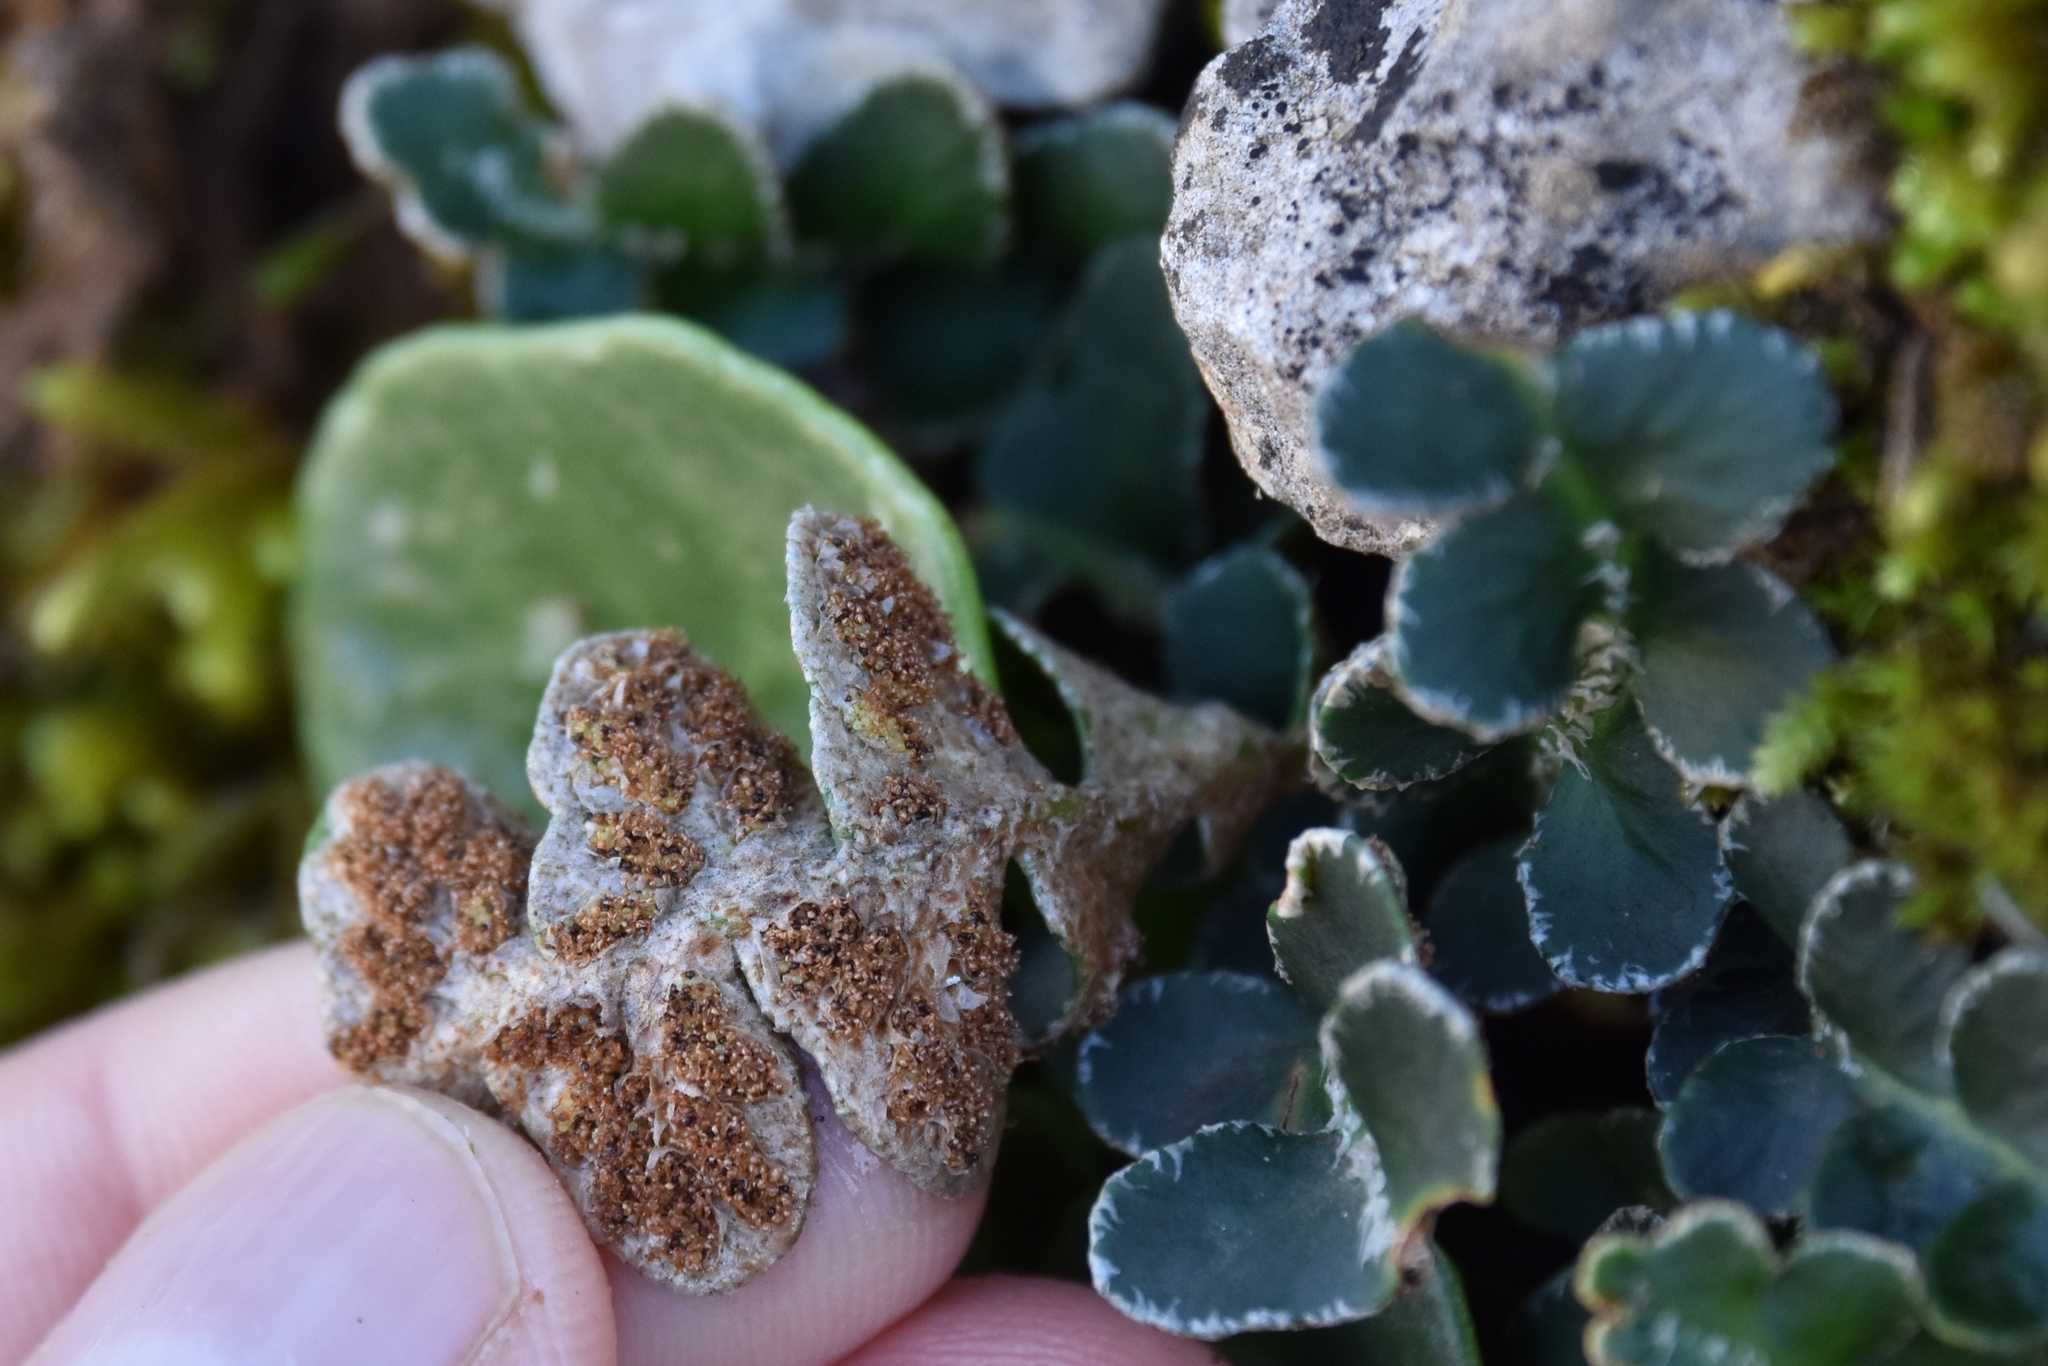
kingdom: Plantae
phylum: Tracheophyta
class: Polypodiopsida
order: Polypodiales
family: Aspleniaceae
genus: Asplenium
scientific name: Asplenium ceterach
